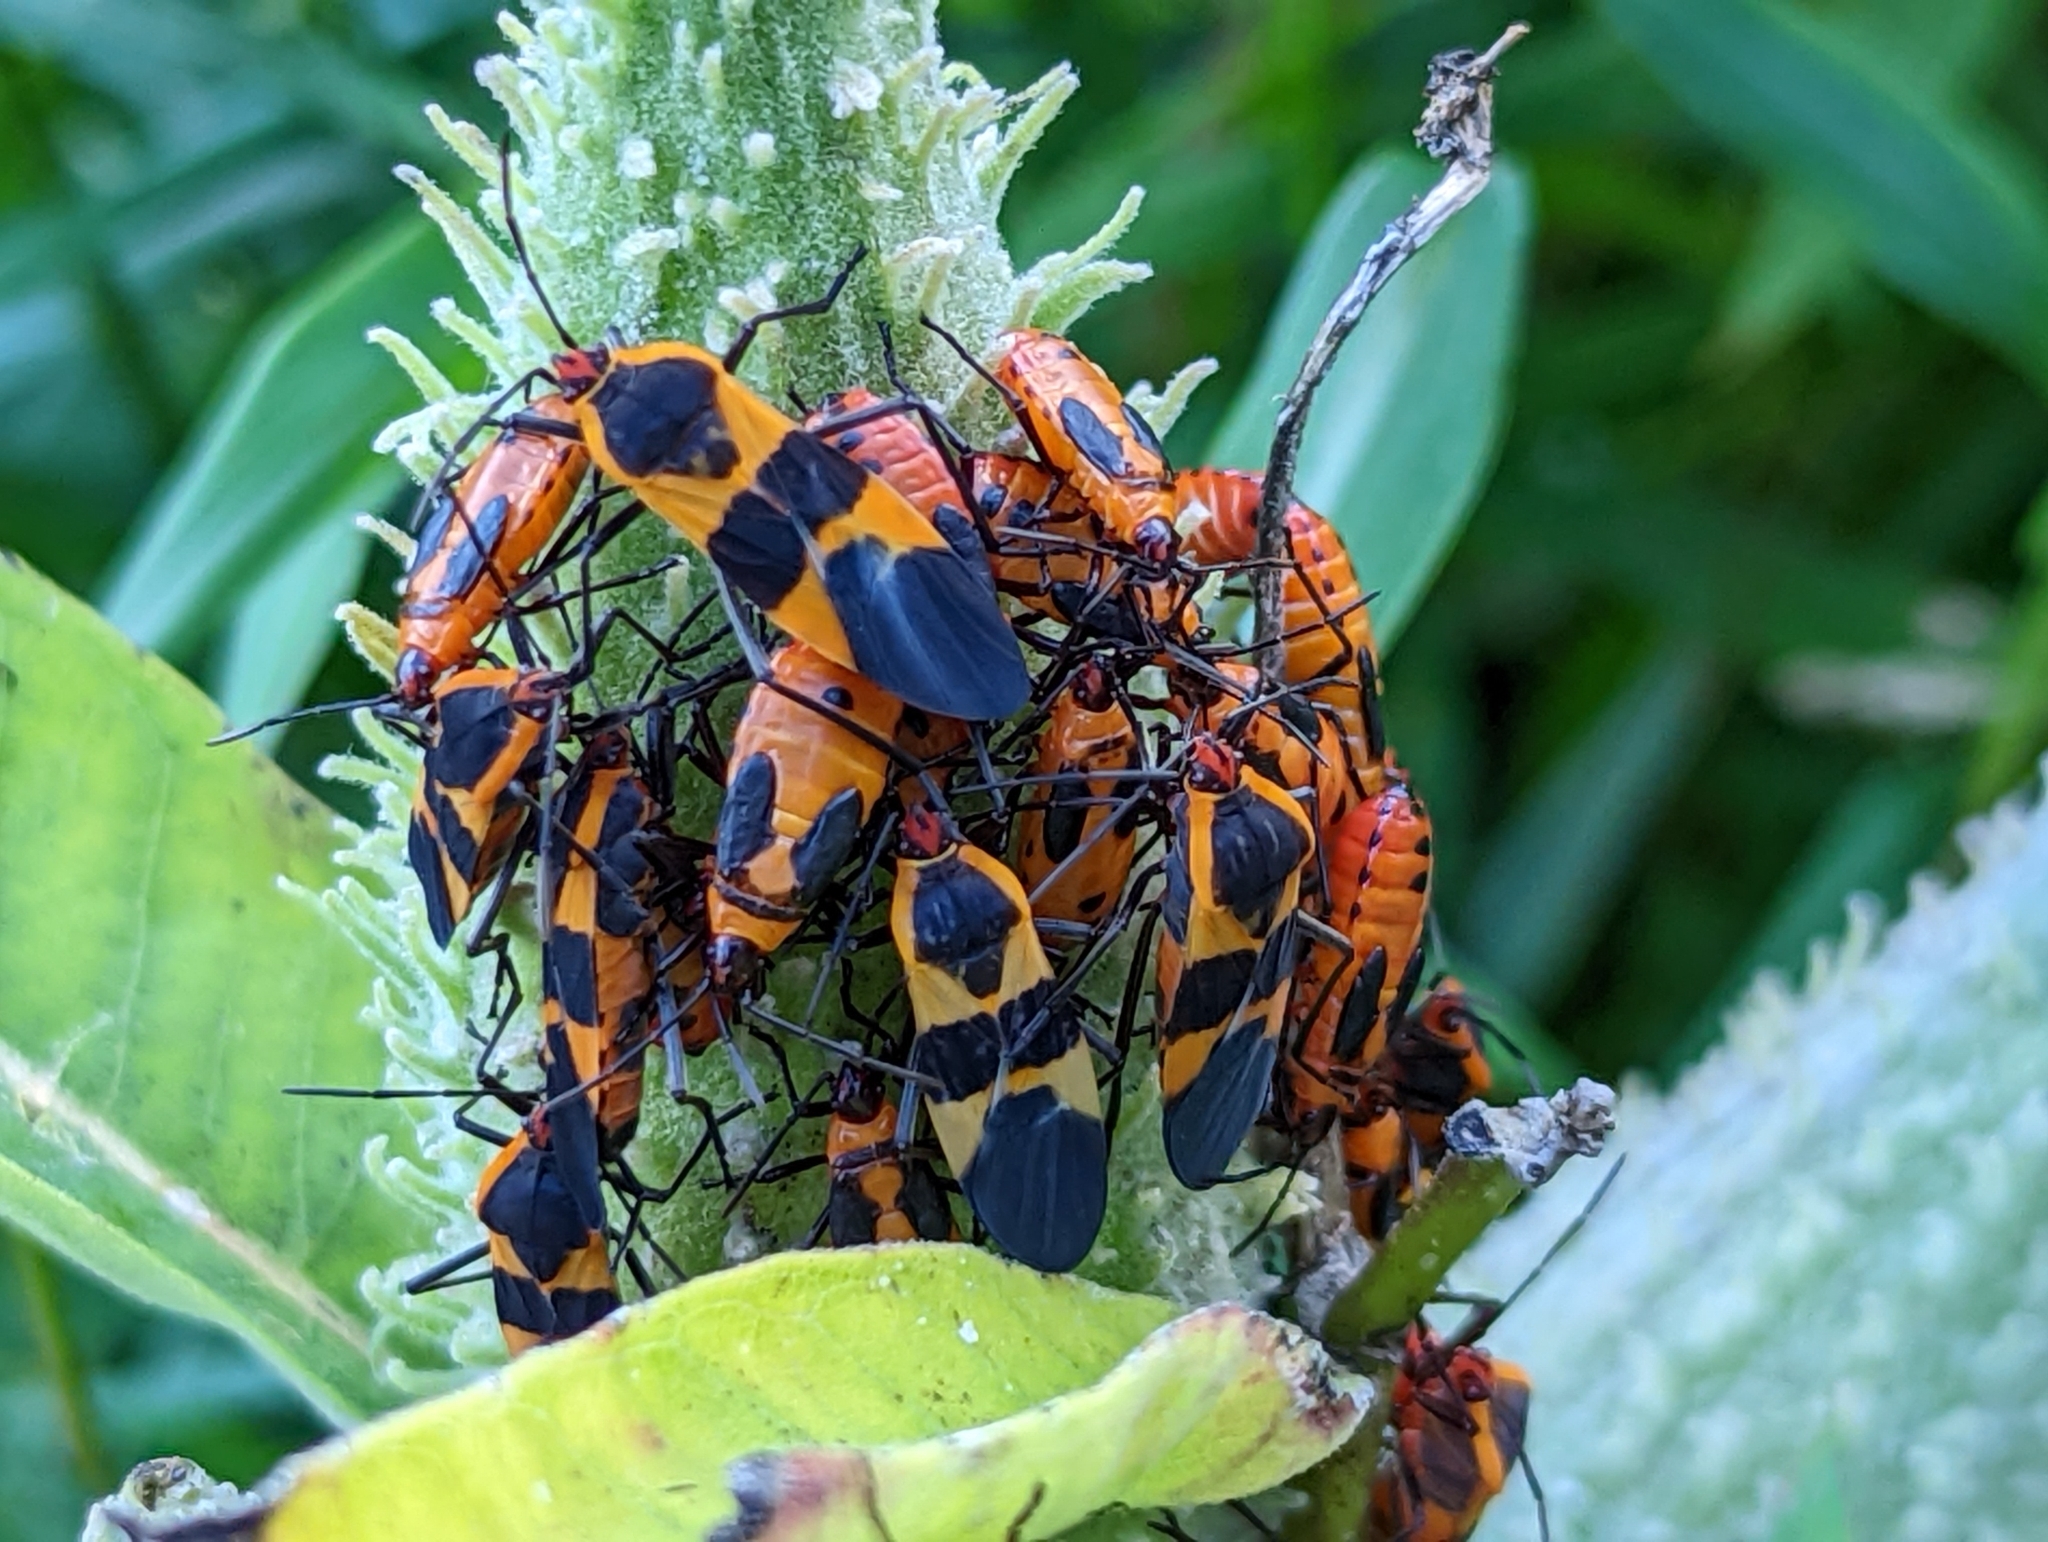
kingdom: Animalia
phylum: Arthropoda
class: Insecta
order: Hemiptera
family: Lygaeidae
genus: Oncopeltus
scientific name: Oncopeltus fasciatus
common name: Large milkweed bug
